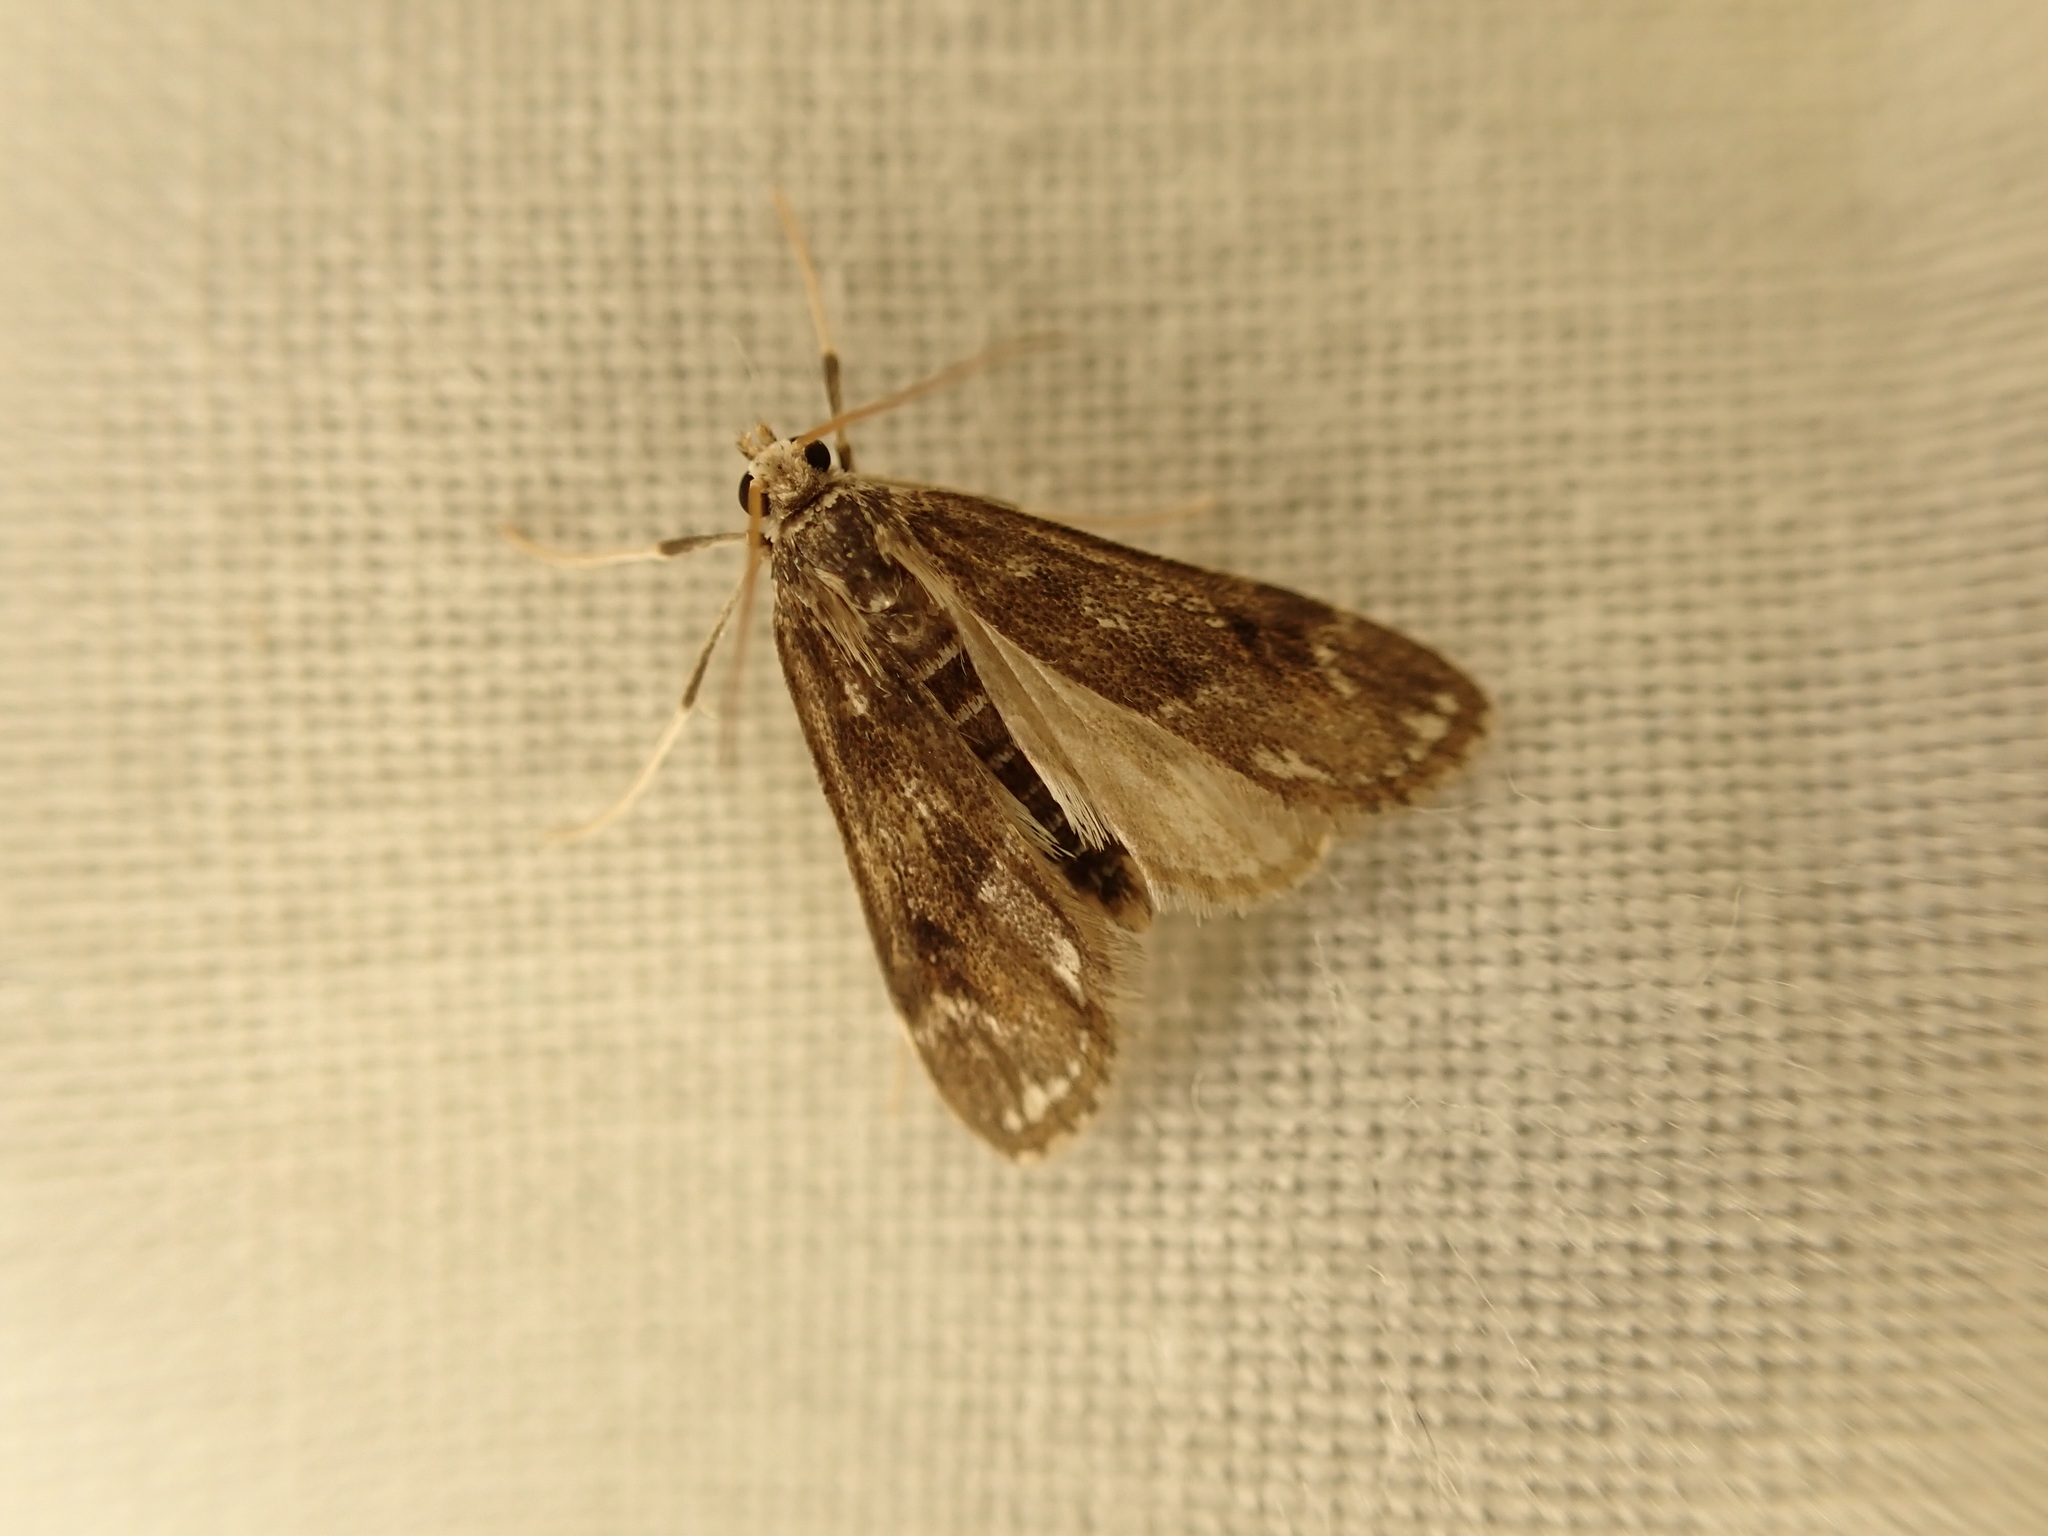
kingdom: Animalia
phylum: Arthropoda
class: Insecta
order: Lepidoptera
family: Crambidae
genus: Hygraula
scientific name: Hygraula nitens
